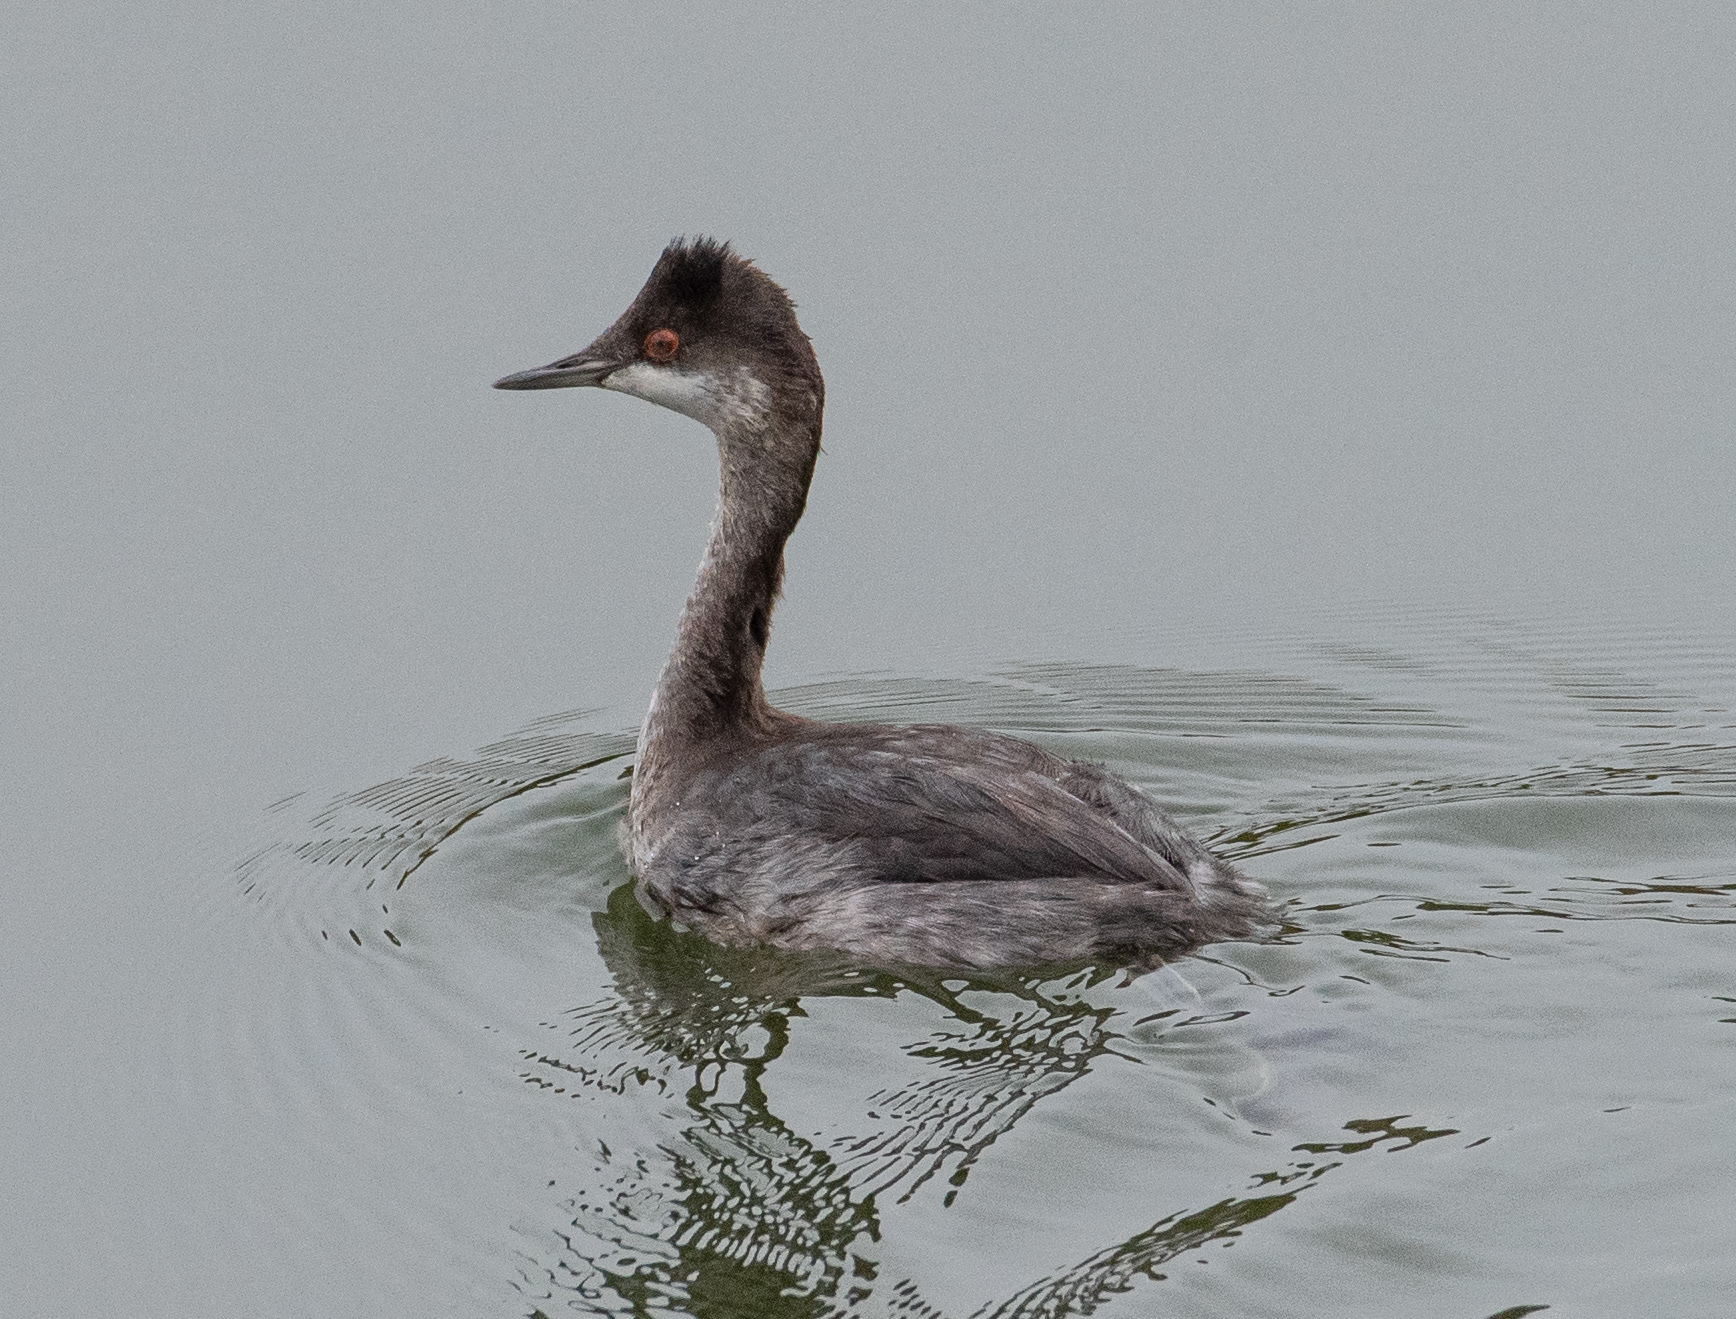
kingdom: Animalia
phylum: Chordata
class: Aves
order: Podicipediformes
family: Podicipedidae
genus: Podiceps
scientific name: Podiceps nigricollis
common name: Black-necked grebe
